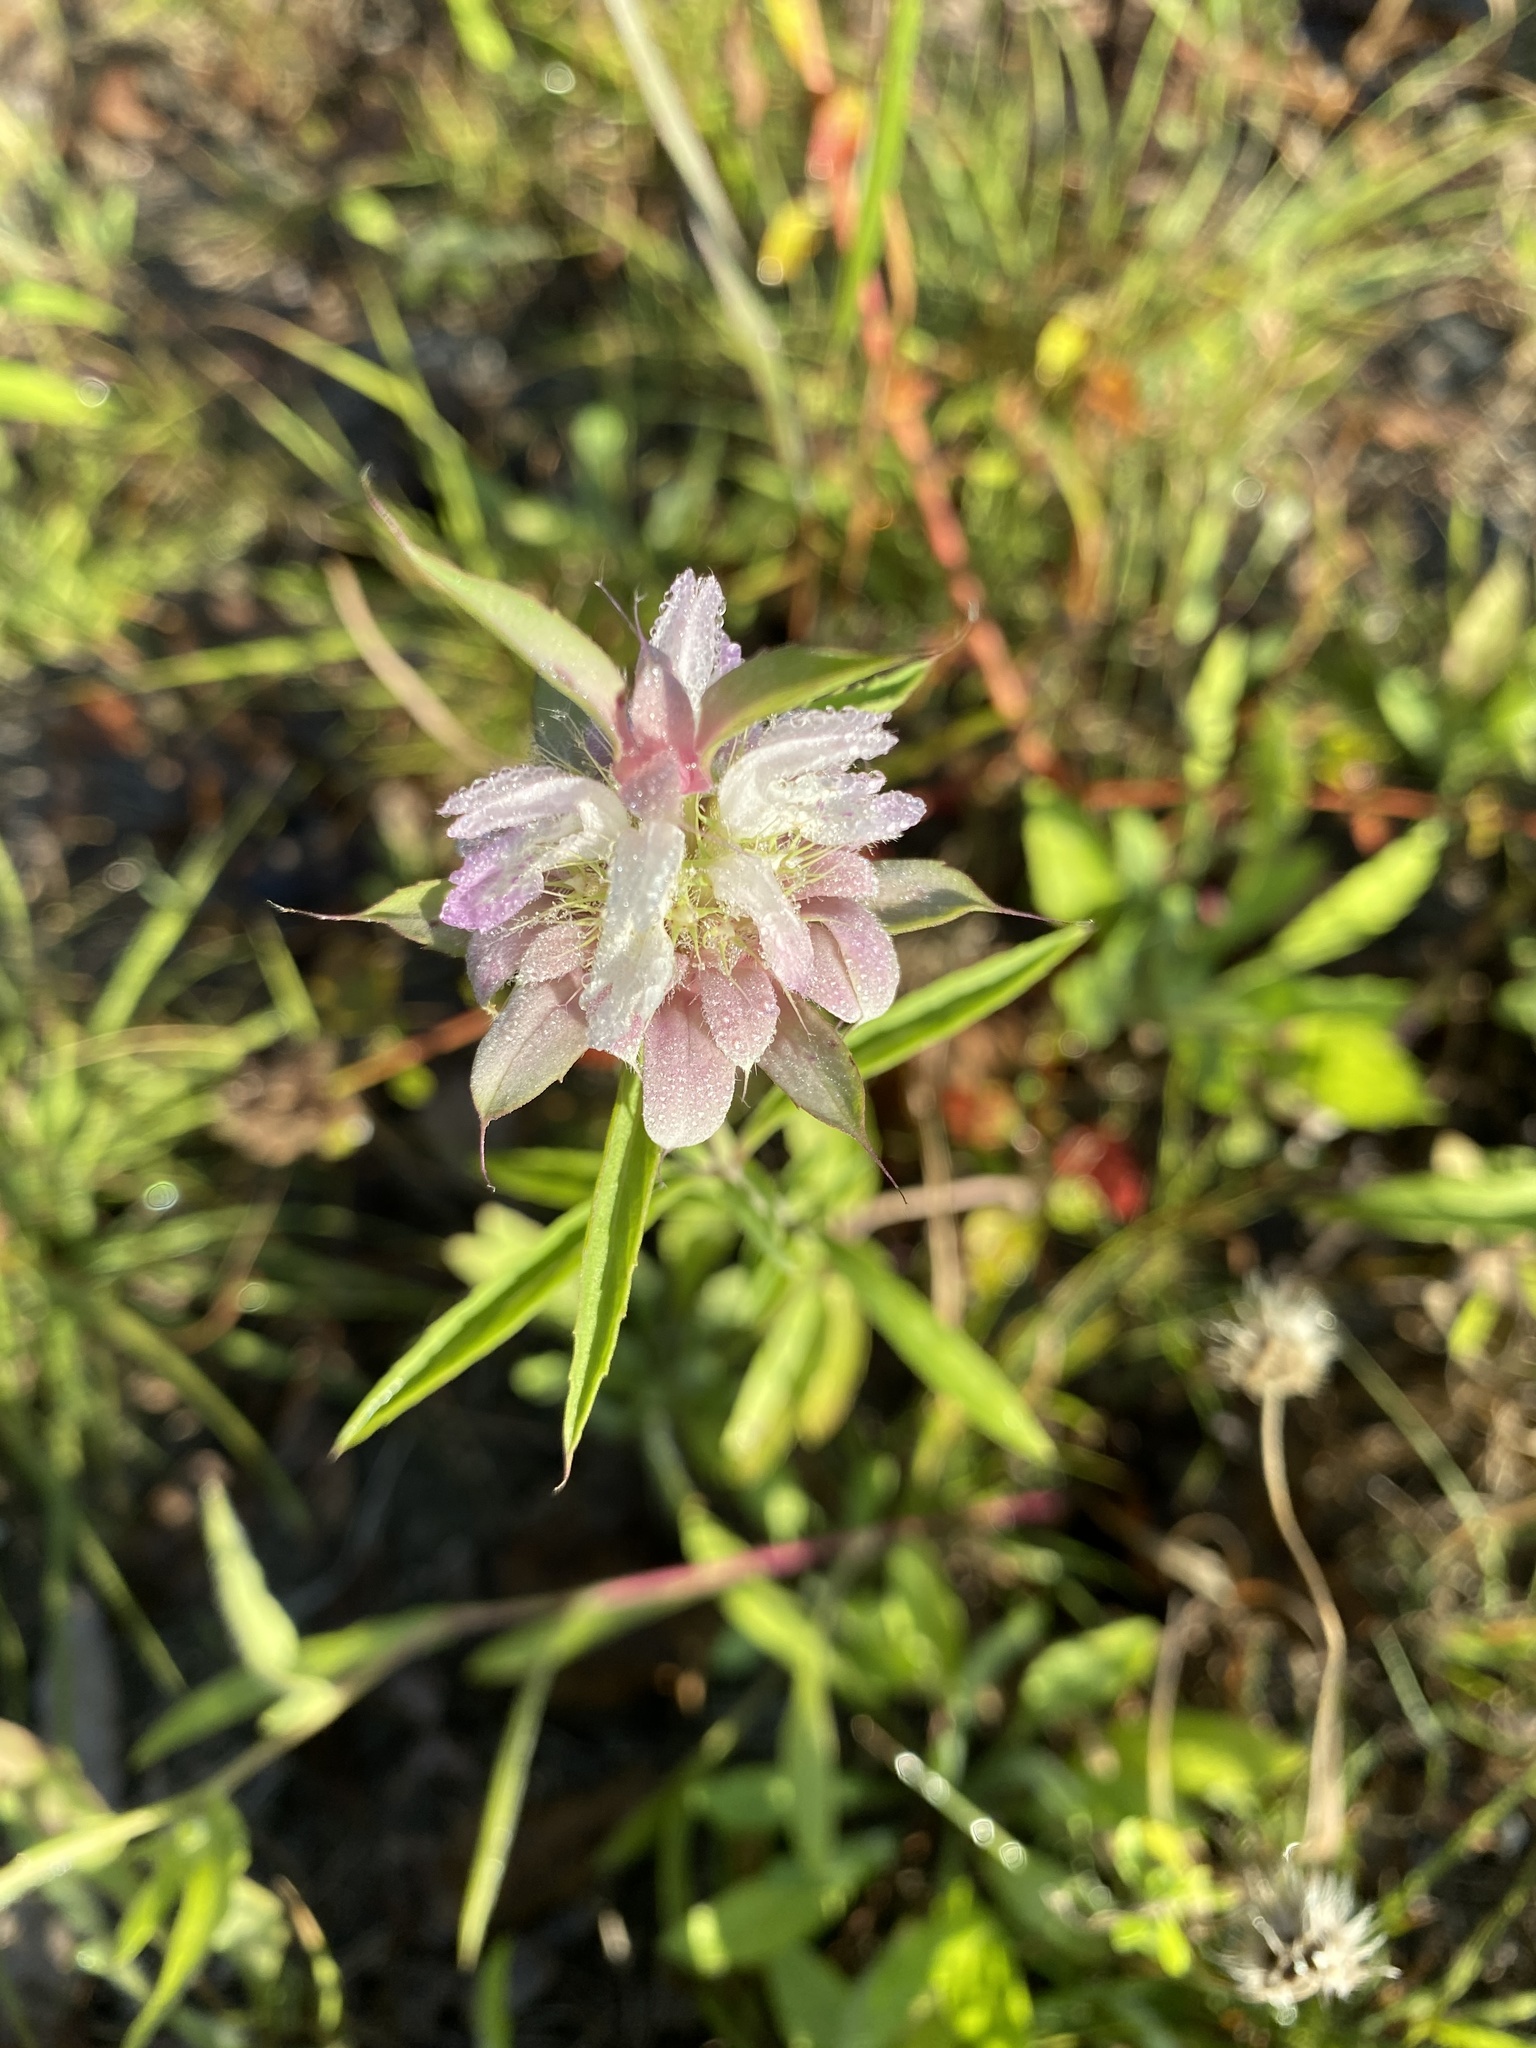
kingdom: Plantae
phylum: Tracheophyta
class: Magnoliopsida
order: Lamiales
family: Lamiaceae
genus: Monarda
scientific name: Monarda citriodora
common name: Lemon beebalm
